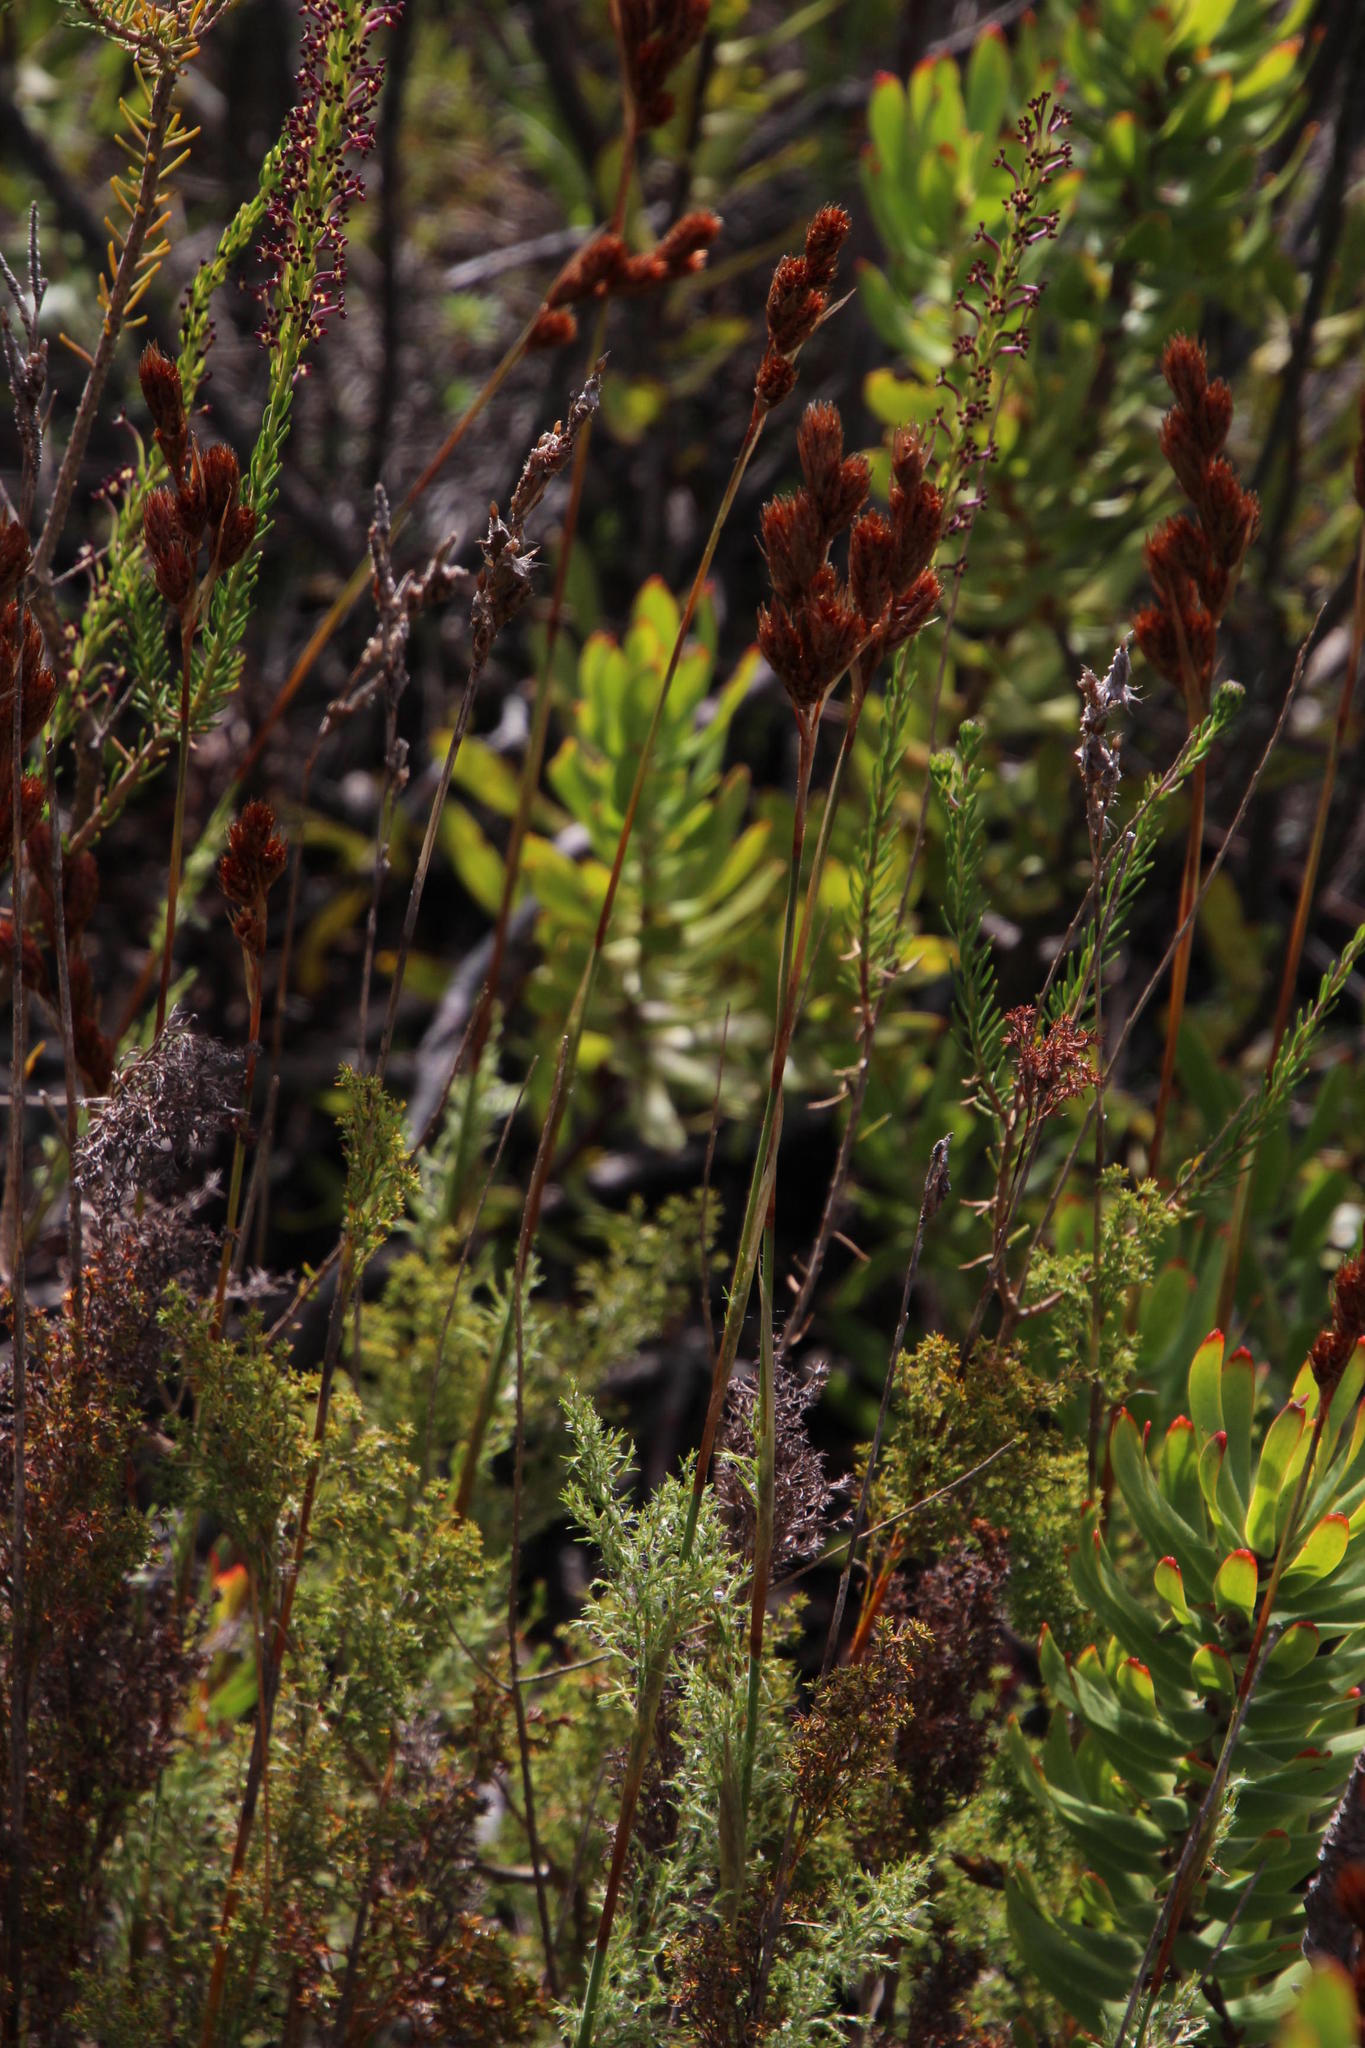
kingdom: Plantae
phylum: Tracheophyta
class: Liliopsida
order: Poales
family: Restionaceae
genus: Thamnochortus
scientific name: Thamnochortus fruticosus
